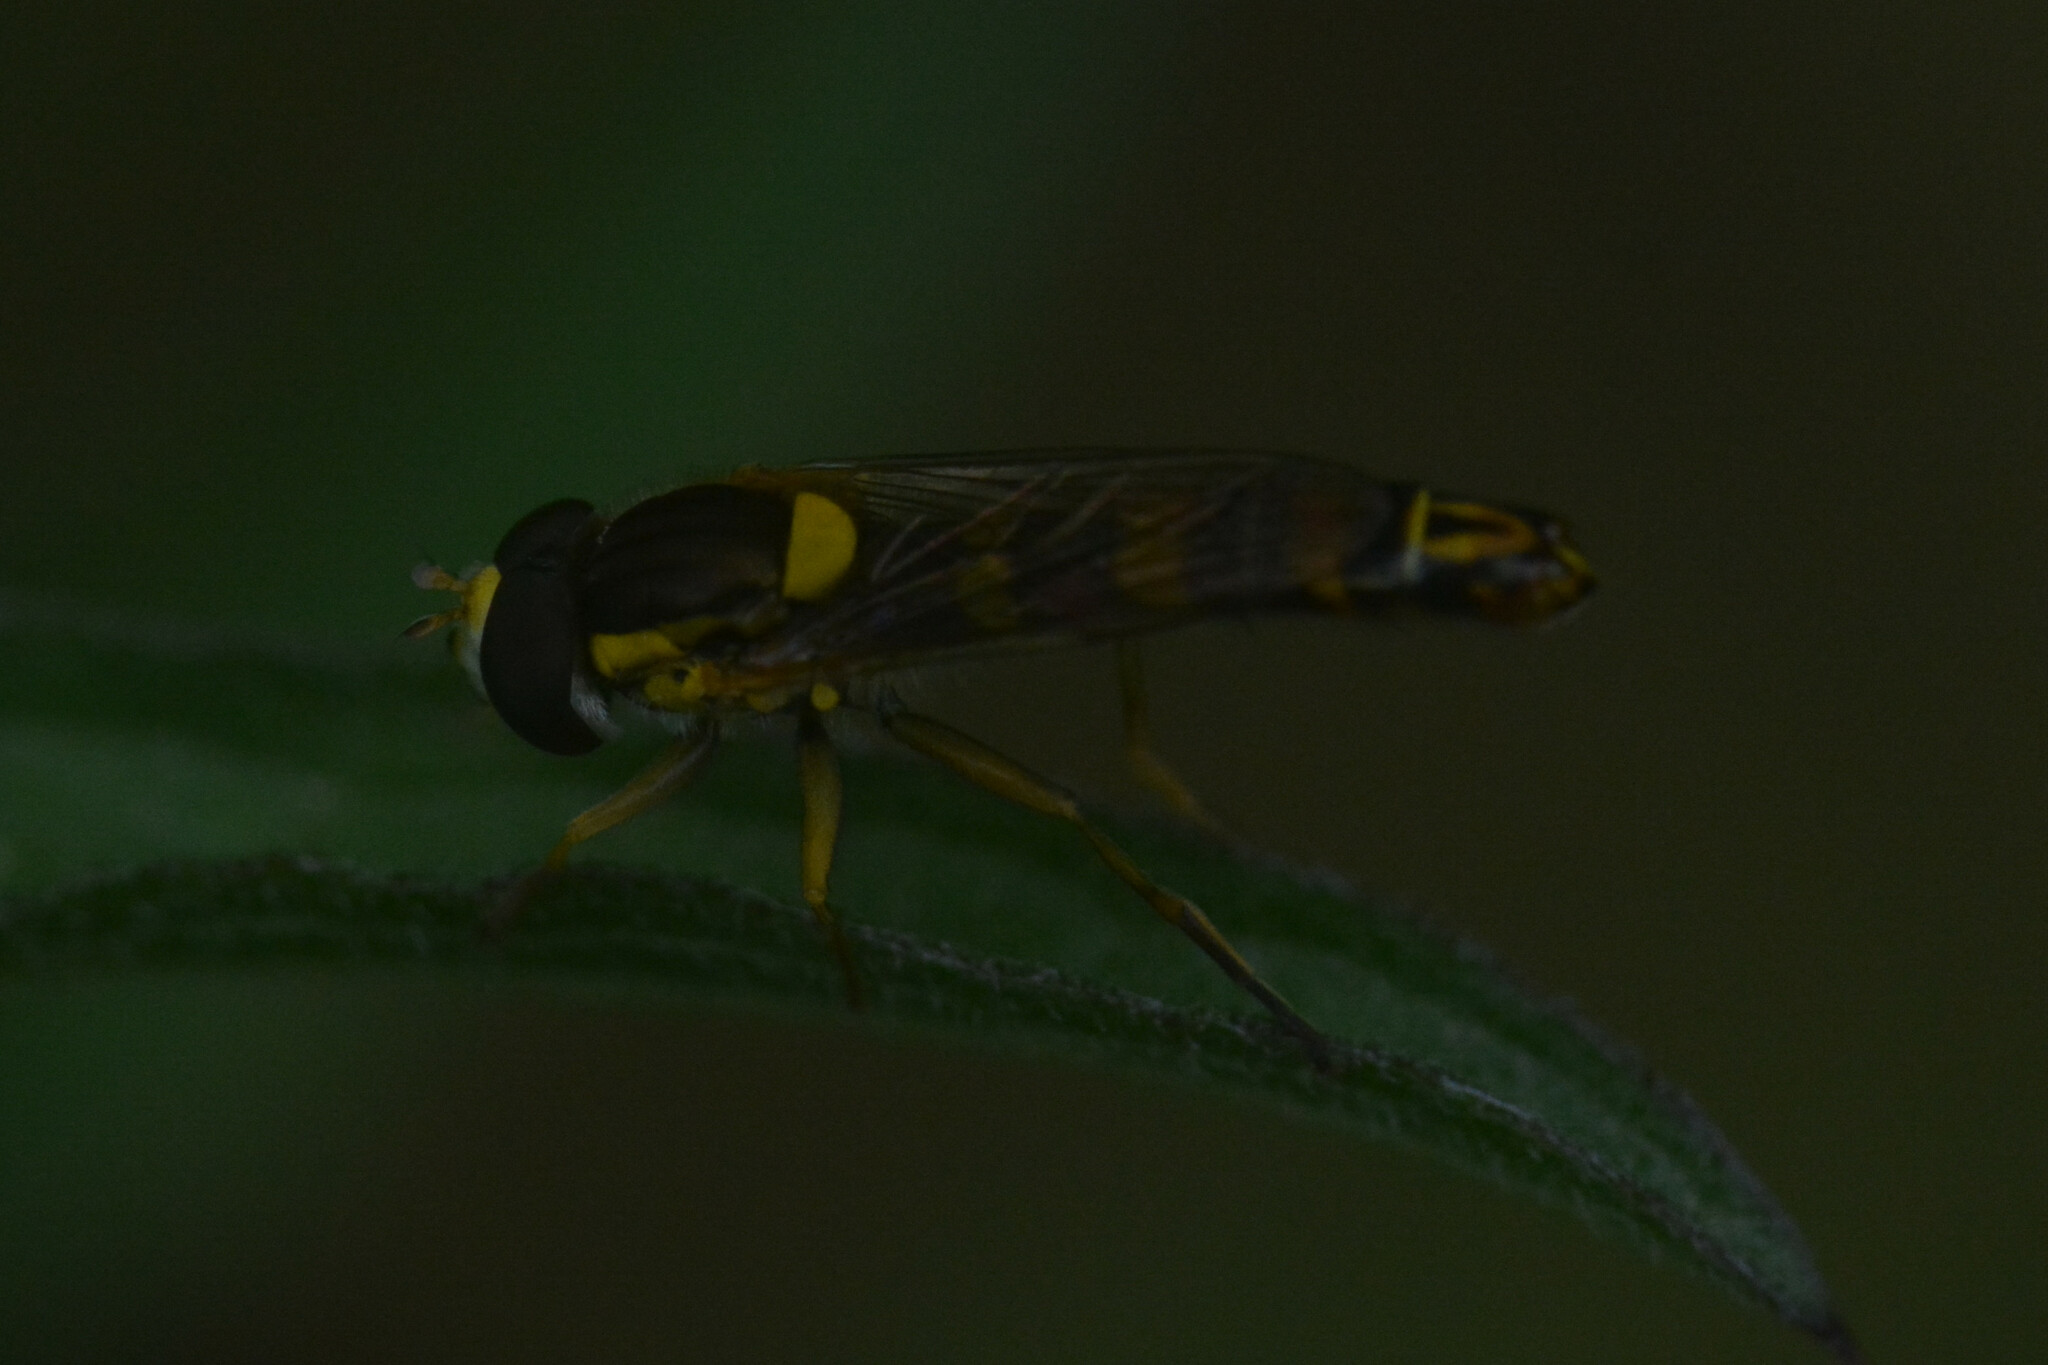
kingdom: Animalia
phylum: Arthropoda
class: Insecta
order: Diptera
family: Syrphidae
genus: Sphaerophoria
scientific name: Sphaerophoria scripta
